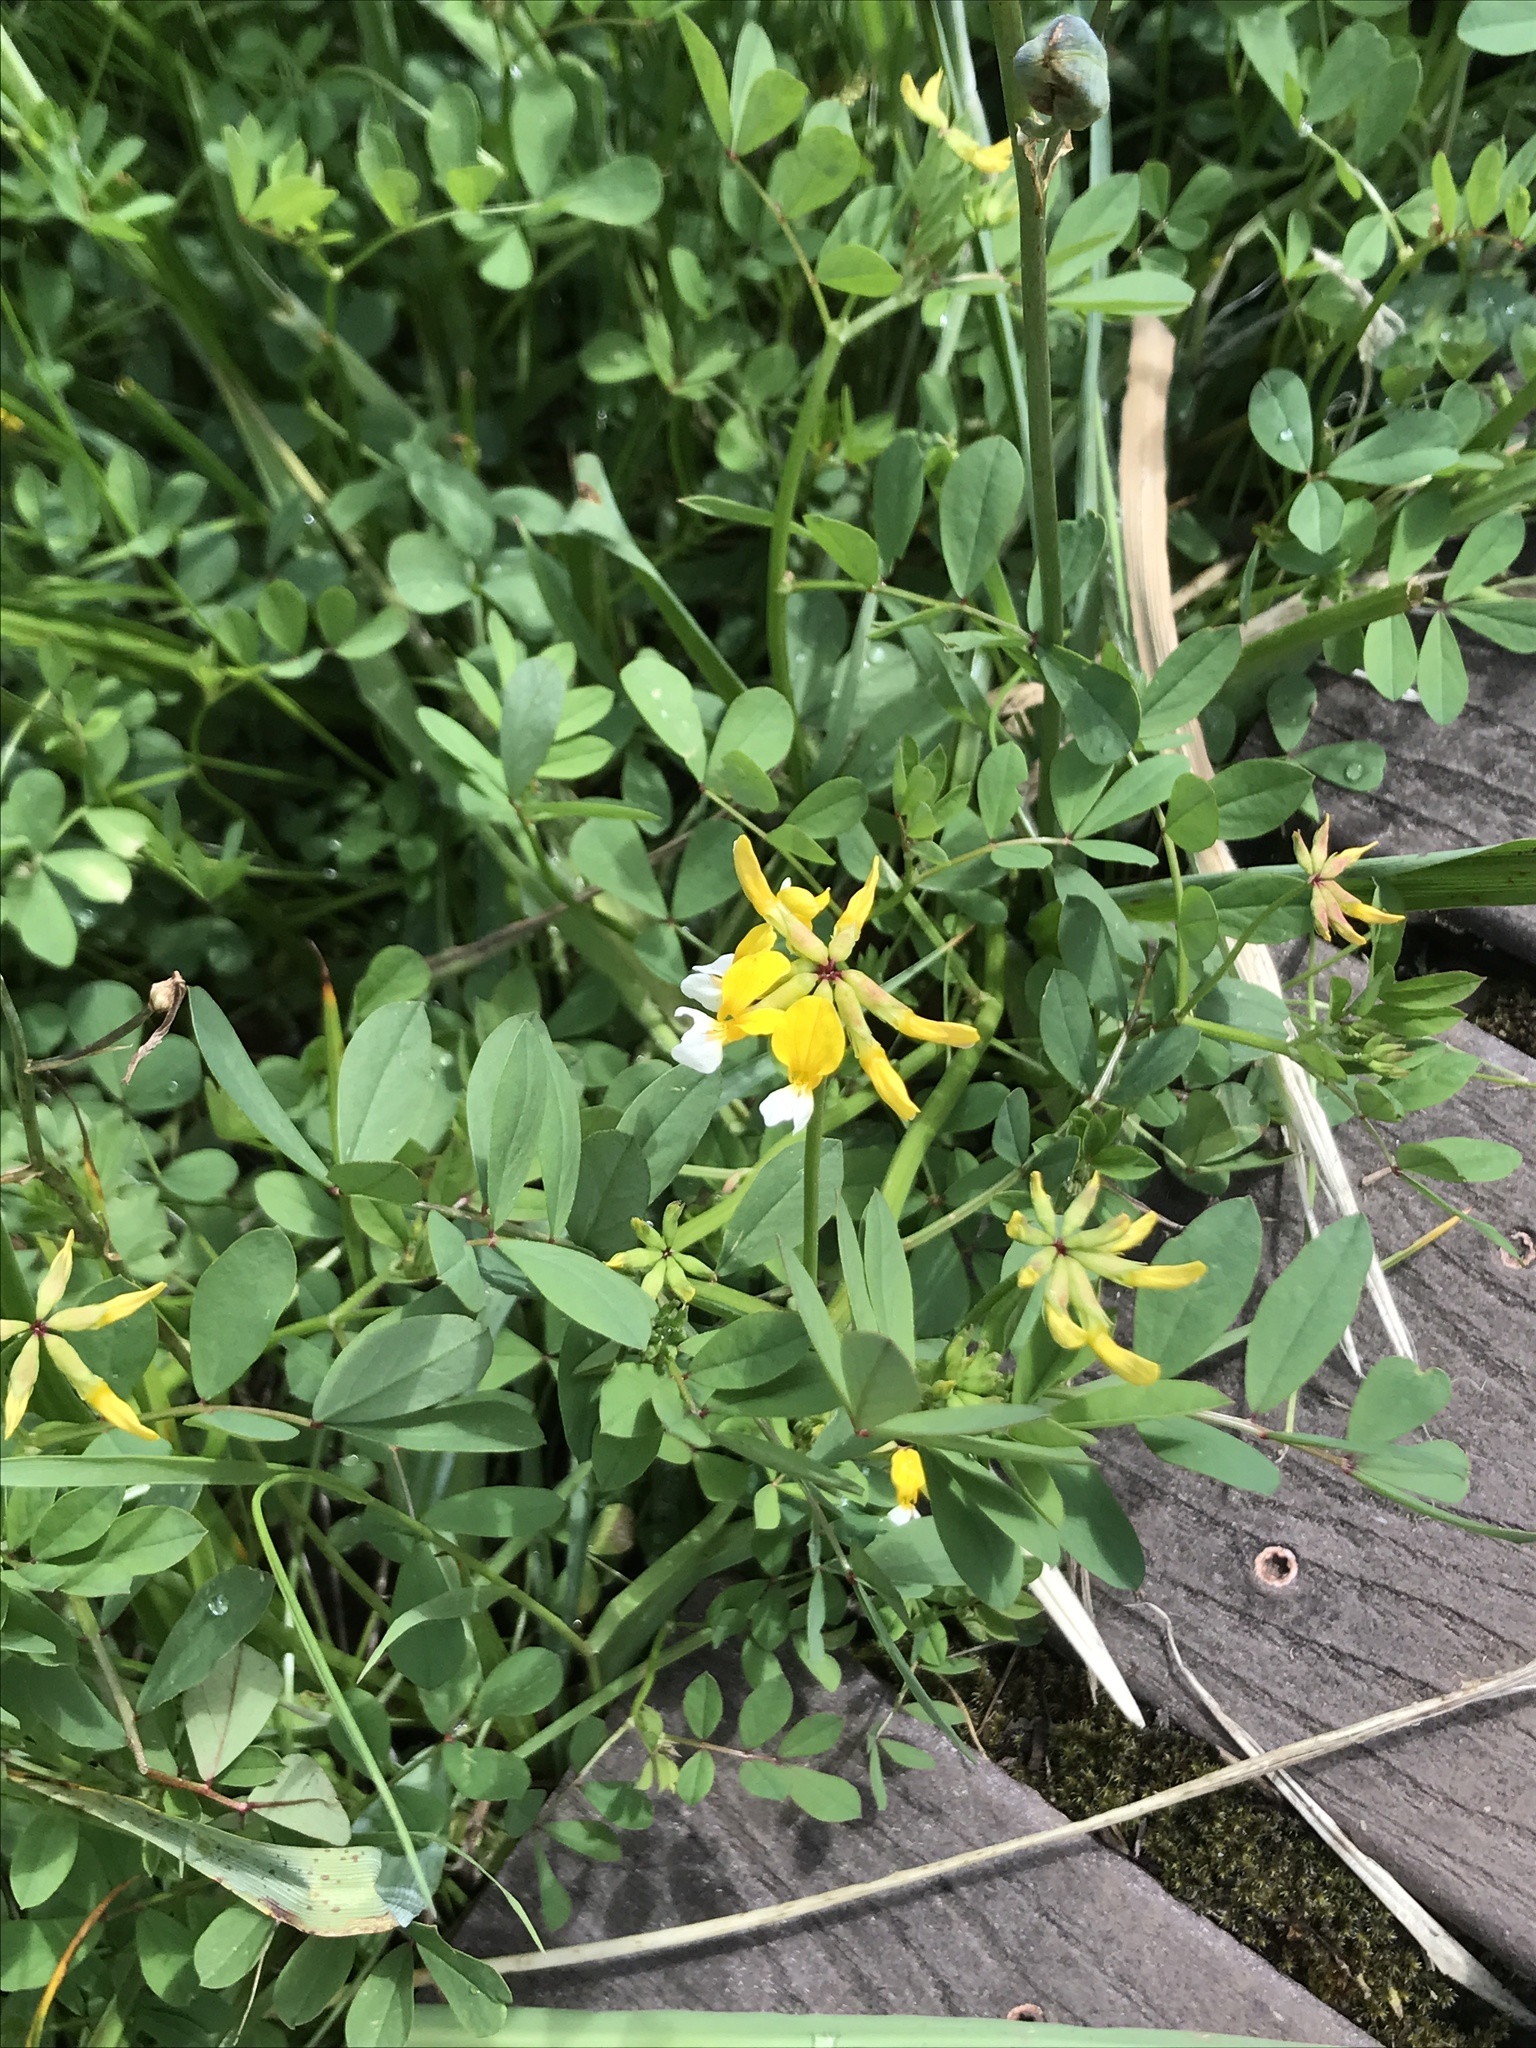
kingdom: Plantae
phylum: Tracheophyta
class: Magnoliopsida
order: Fabales
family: Fabaceae
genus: Hosackia
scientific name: Hosackia pinnata
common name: Bog bird's-foot trefoil
